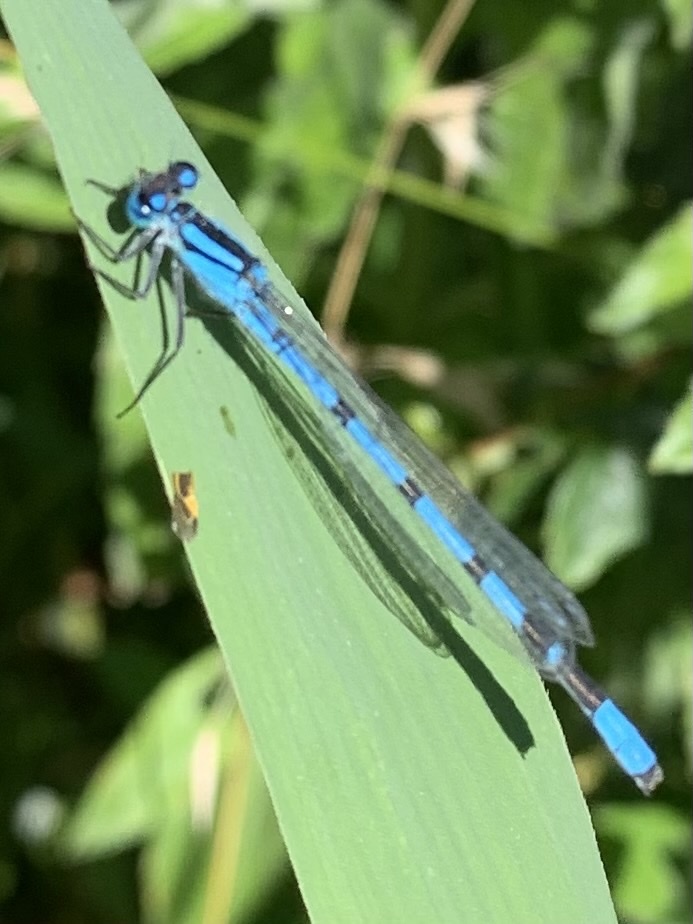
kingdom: Animalia
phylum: Arthropoda
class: Insecta
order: Odonata
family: Coenagrionidae
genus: Enallagma
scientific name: Enallagma cyathigerum
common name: Common blue damselfly
